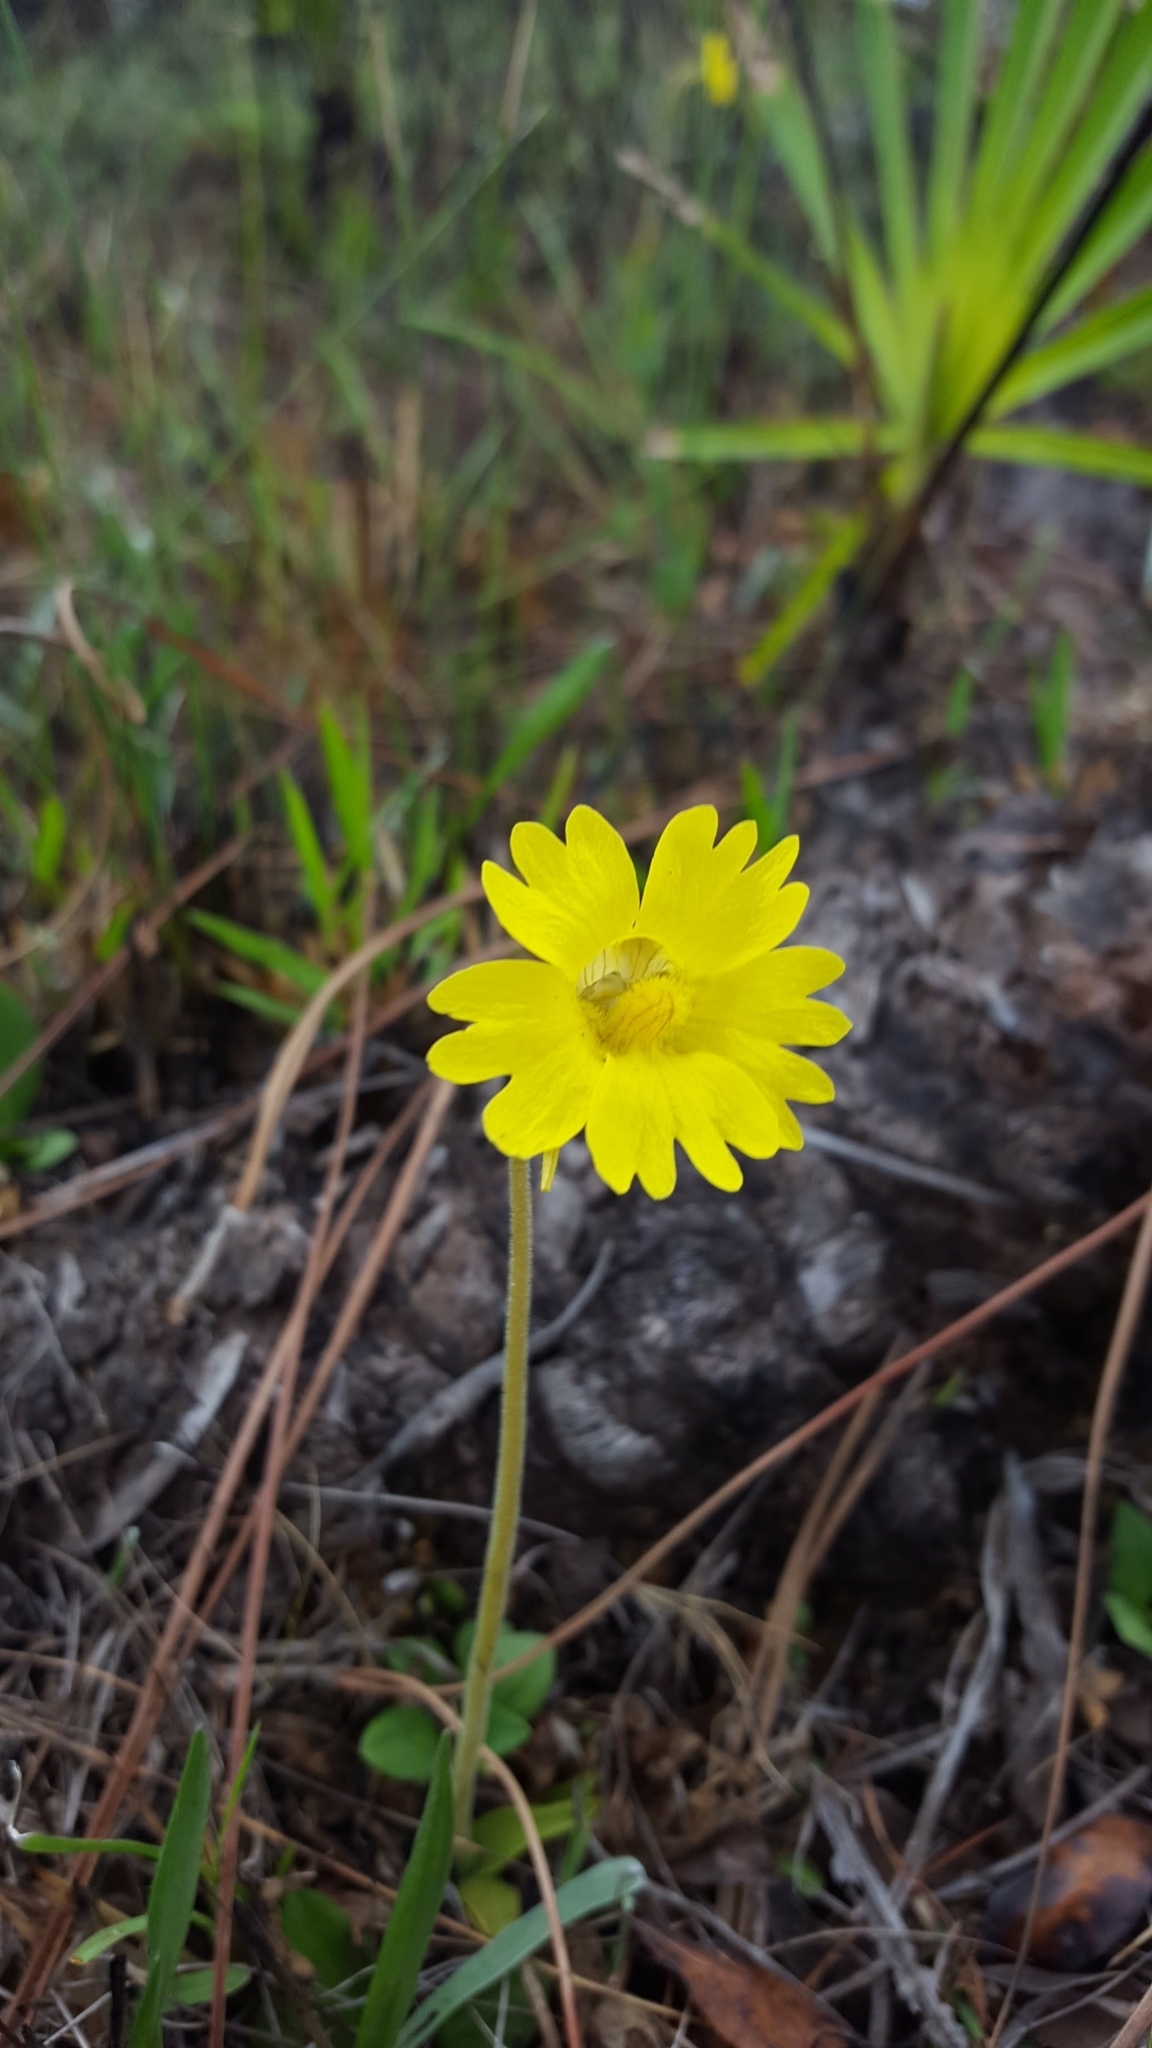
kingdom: Plantae
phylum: Tracheophyta
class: Magnoliopsida
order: Lamiales
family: Lentibulariaceae
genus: Pinguicula
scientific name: Pinguicula lutea
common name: Yellow butterwort
